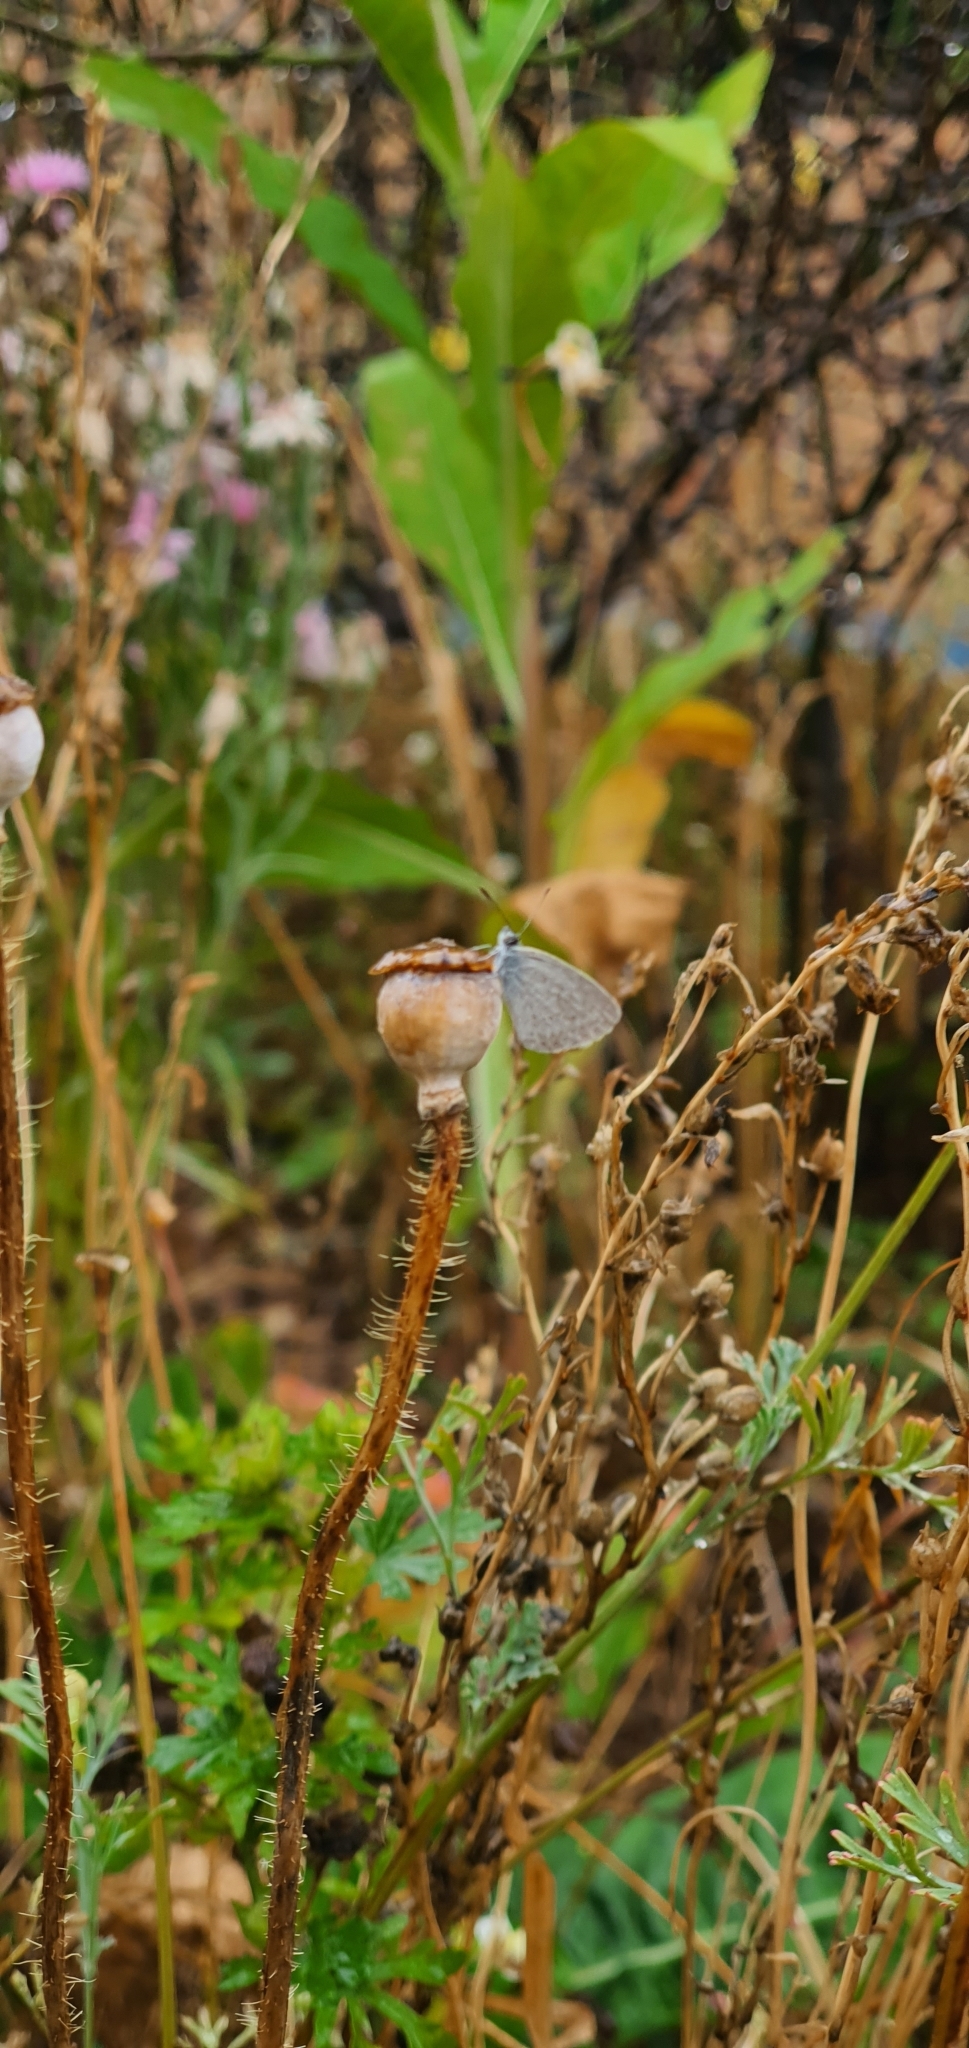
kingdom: Animalia
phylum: Arthropoda
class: Insecta
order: Lepidoptera
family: Lycaenidae
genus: Zizina
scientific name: Zizina otis
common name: Lesser grass blue
